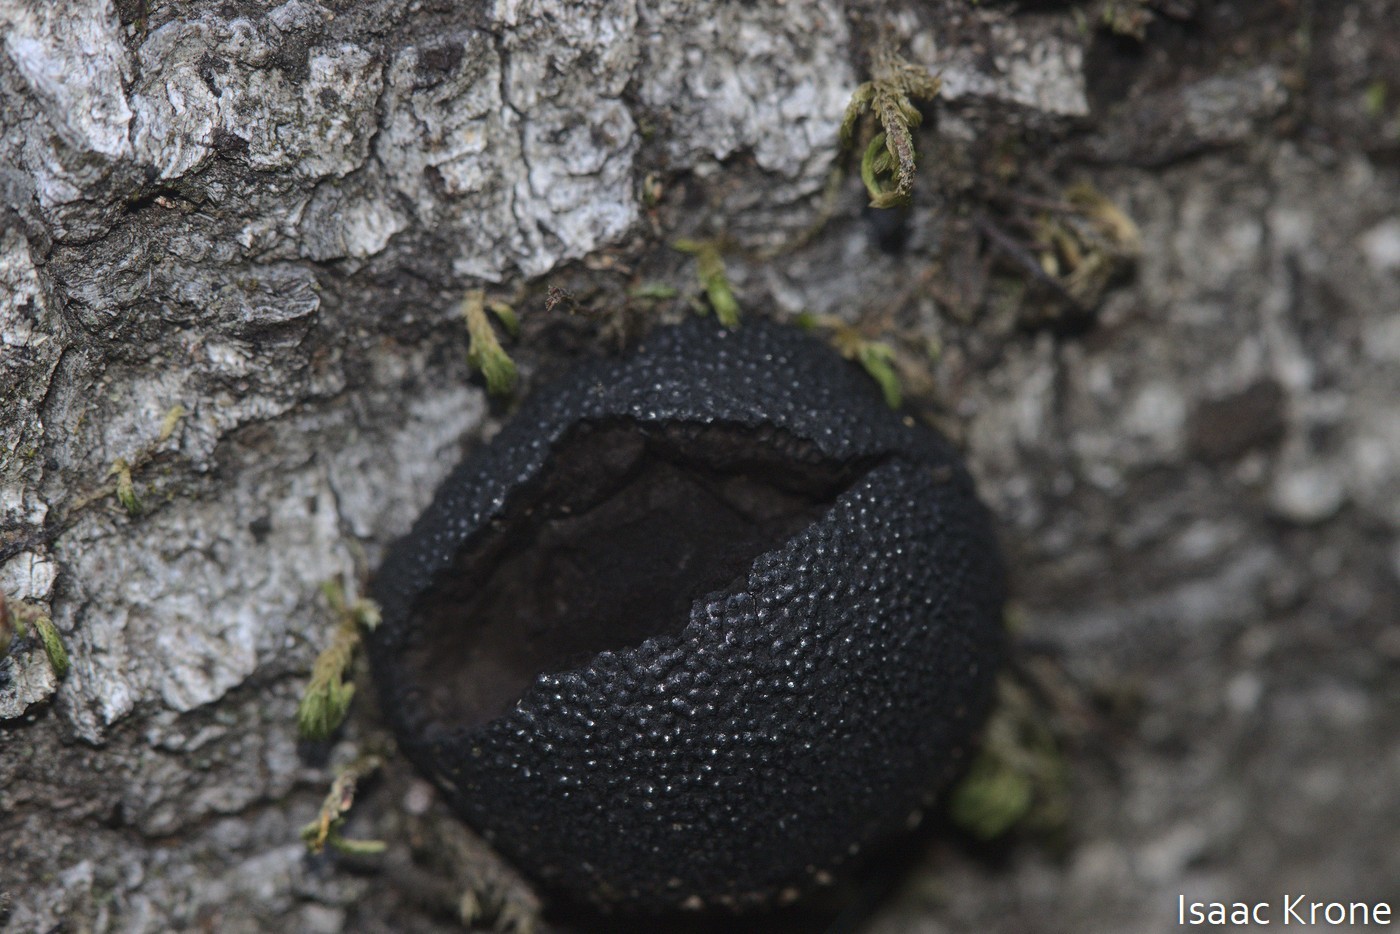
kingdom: Fungi
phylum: Ascomycota
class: Sordariomycetes
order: Xylariales
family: Hypoxylaceae
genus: Annulohypoxylon
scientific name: Annulohypoxylon thouarsianum
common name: Cramp balls
